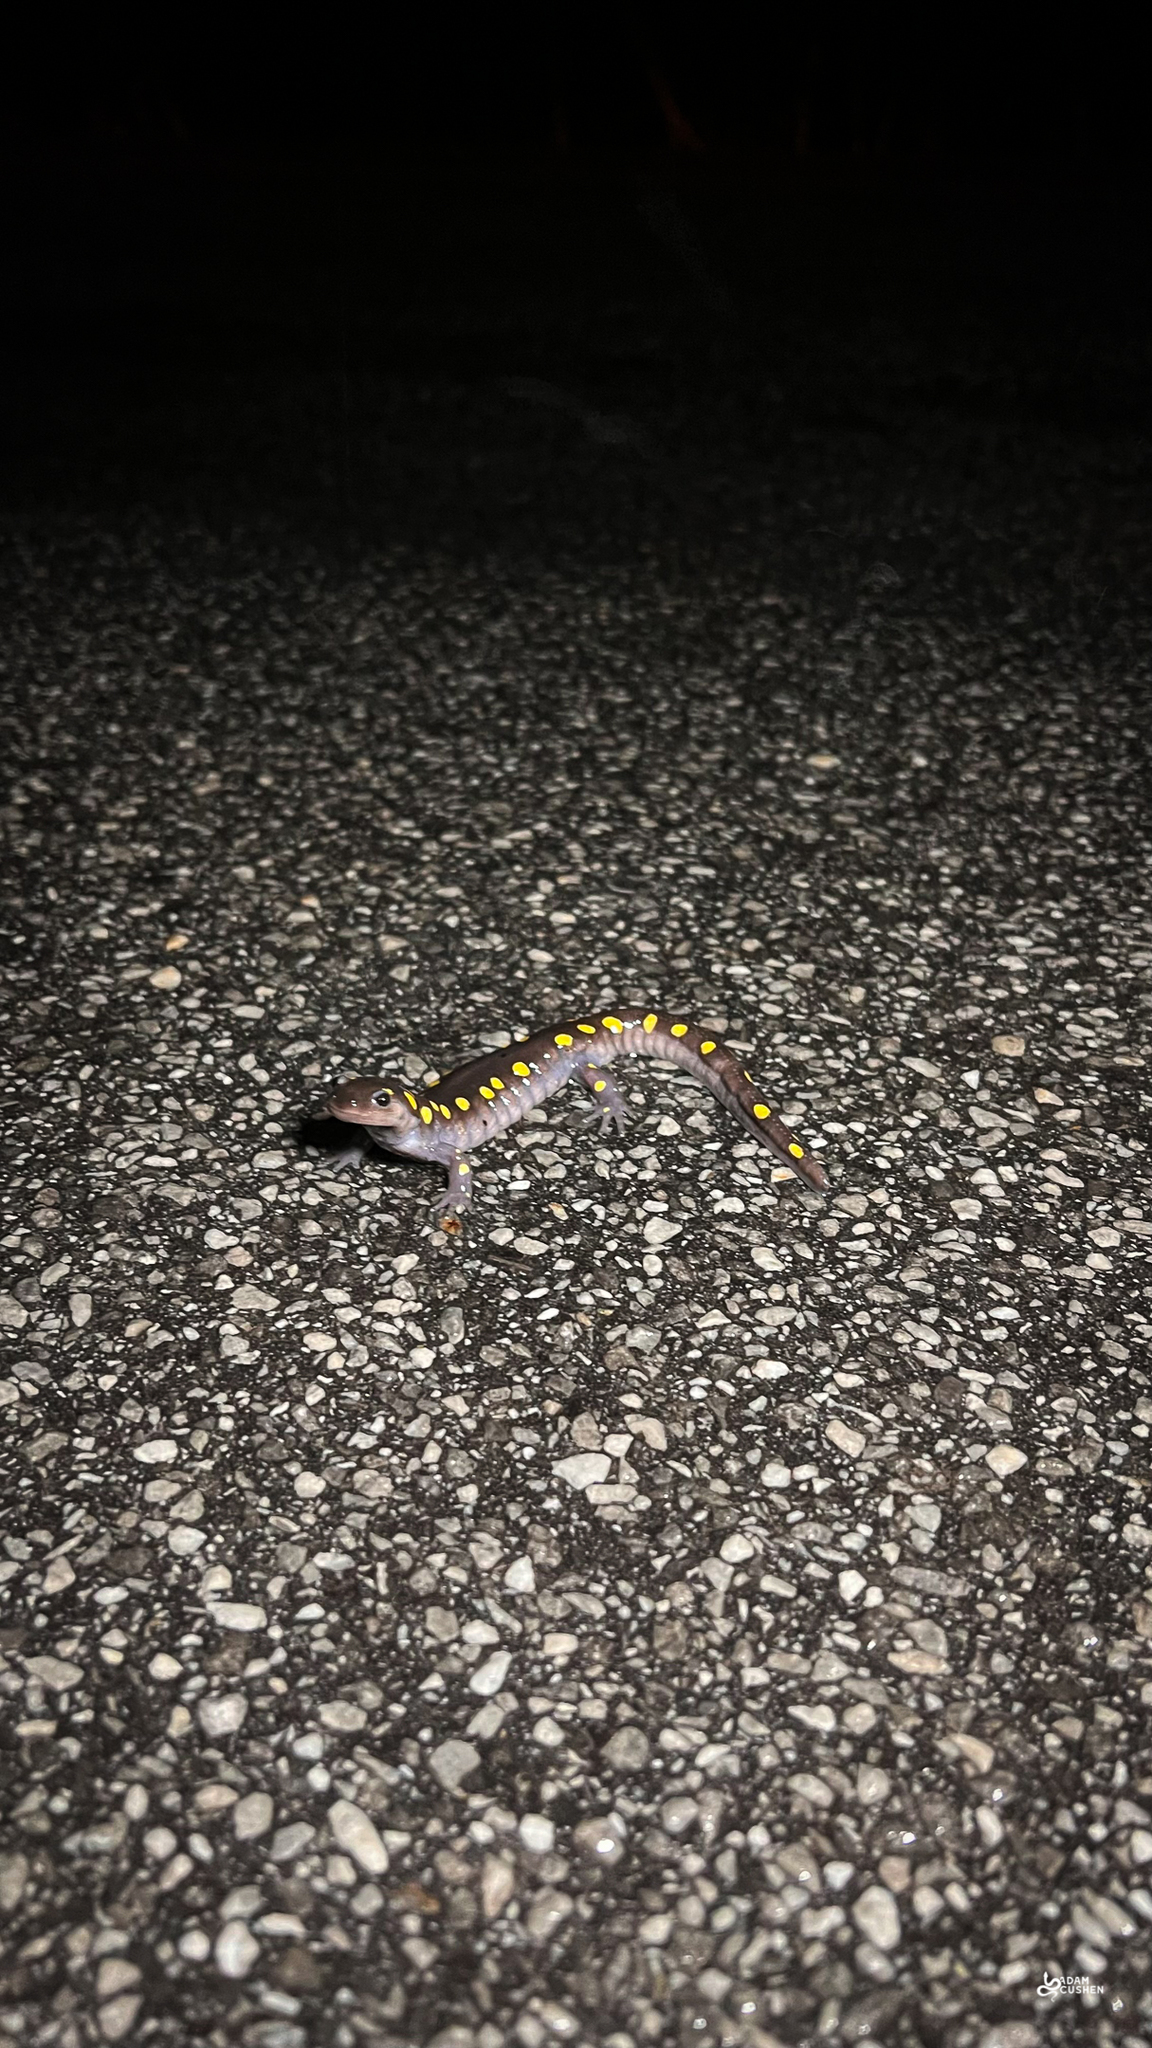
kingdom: Animalia
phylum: Chordata
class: Amphibia
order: Caudata
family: Ambystomatidae
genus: Ambystoma
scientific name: Ambystoma maculatum
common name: Spotted salamander
